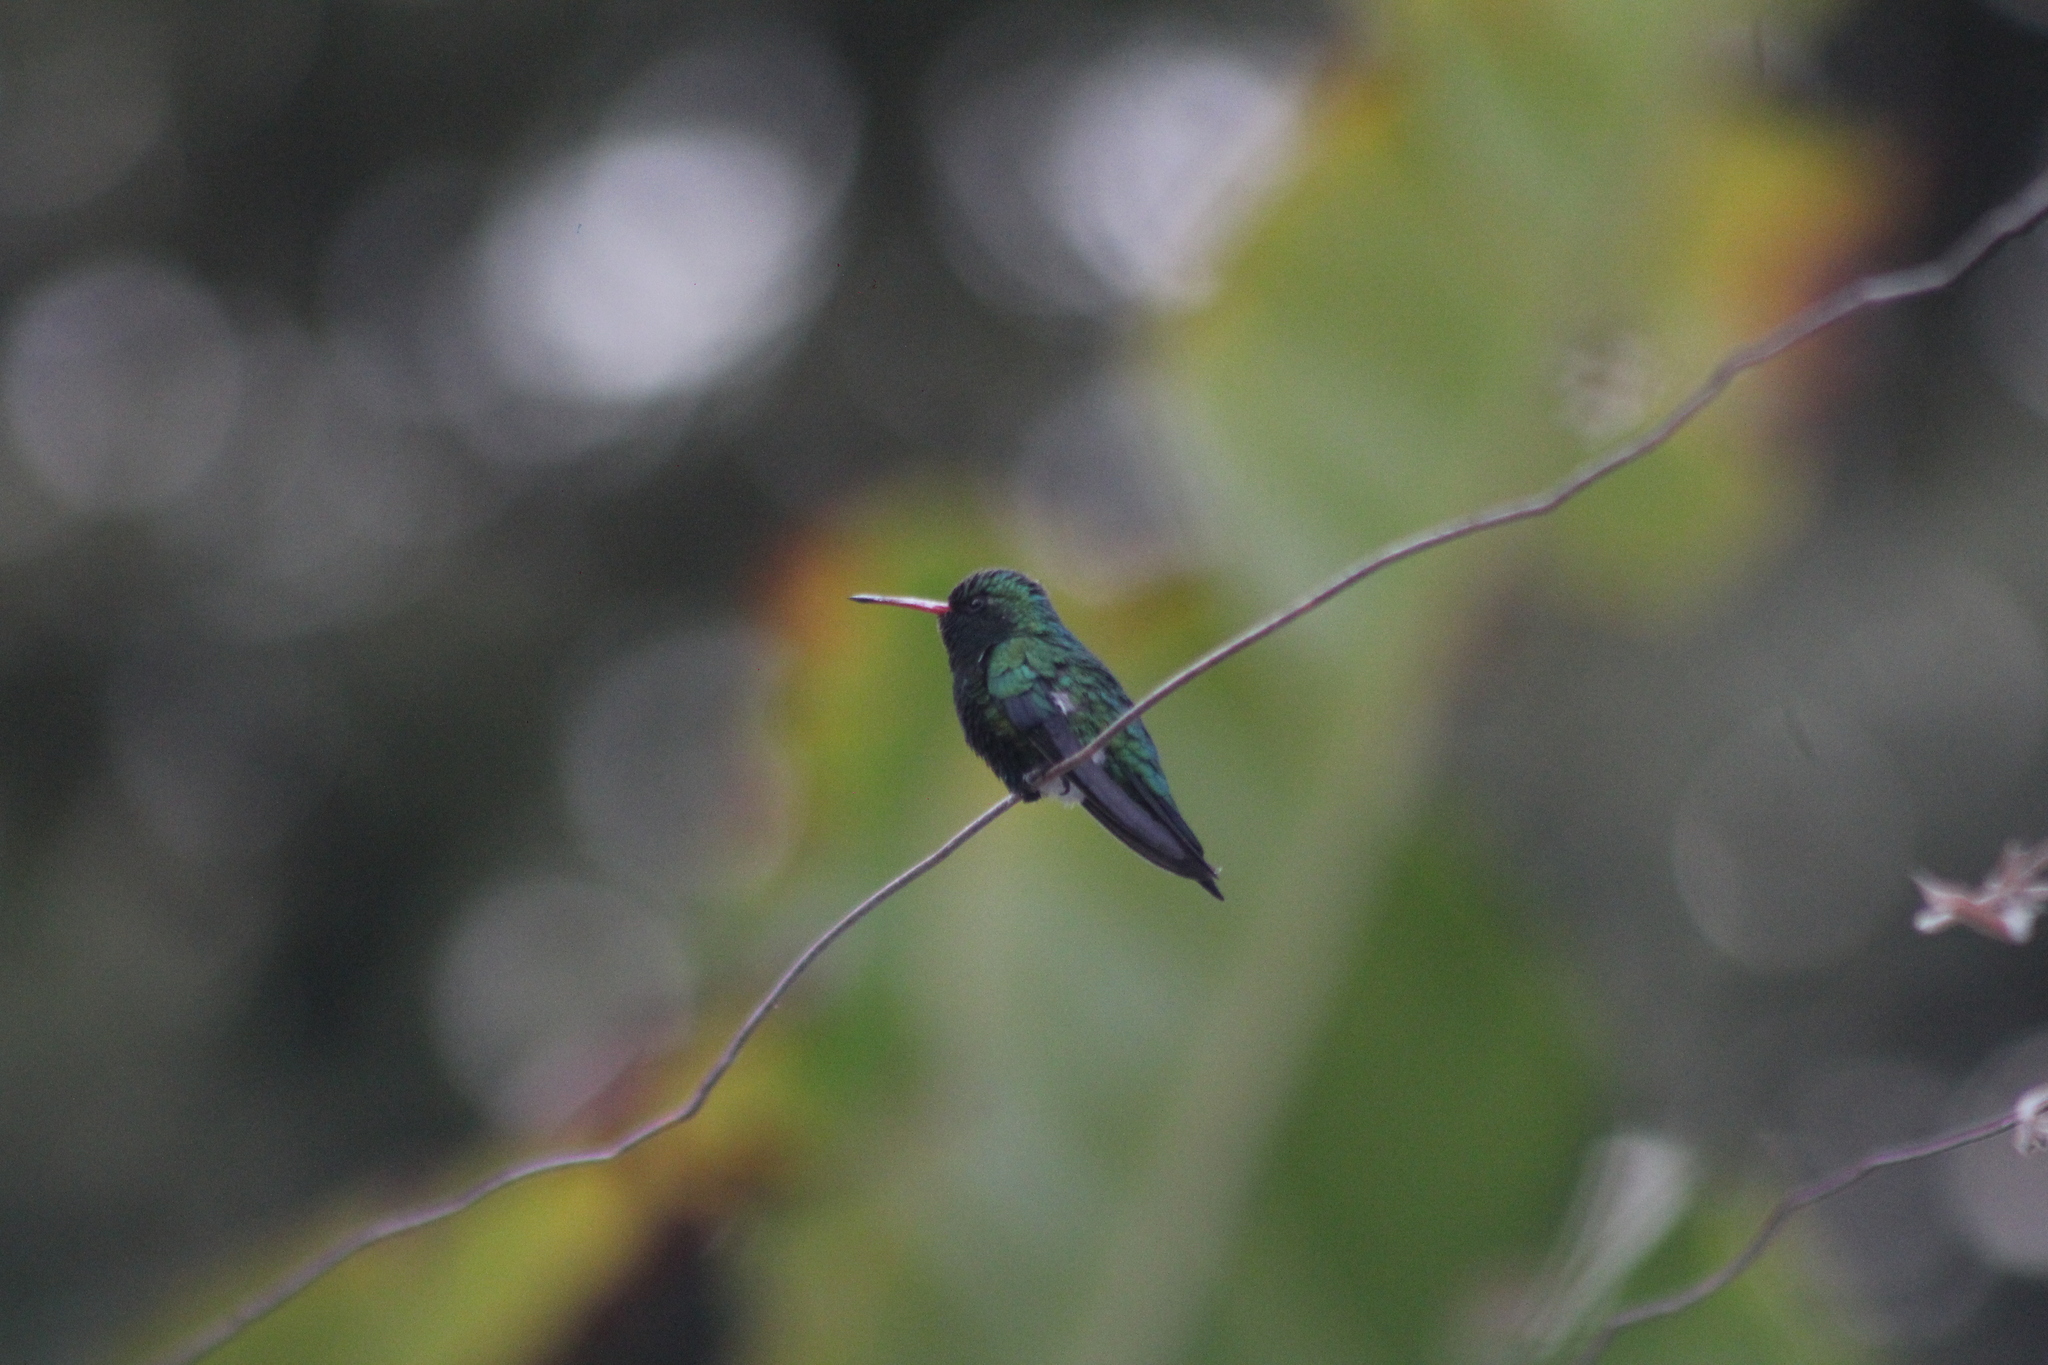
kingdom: Animalia
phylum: Chordata
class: Aves
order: Apodiformes
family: Trochilidae
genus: Chlorostilbon
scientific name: Chlorostilbon lucidus
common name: Glittering-bellied emerald
